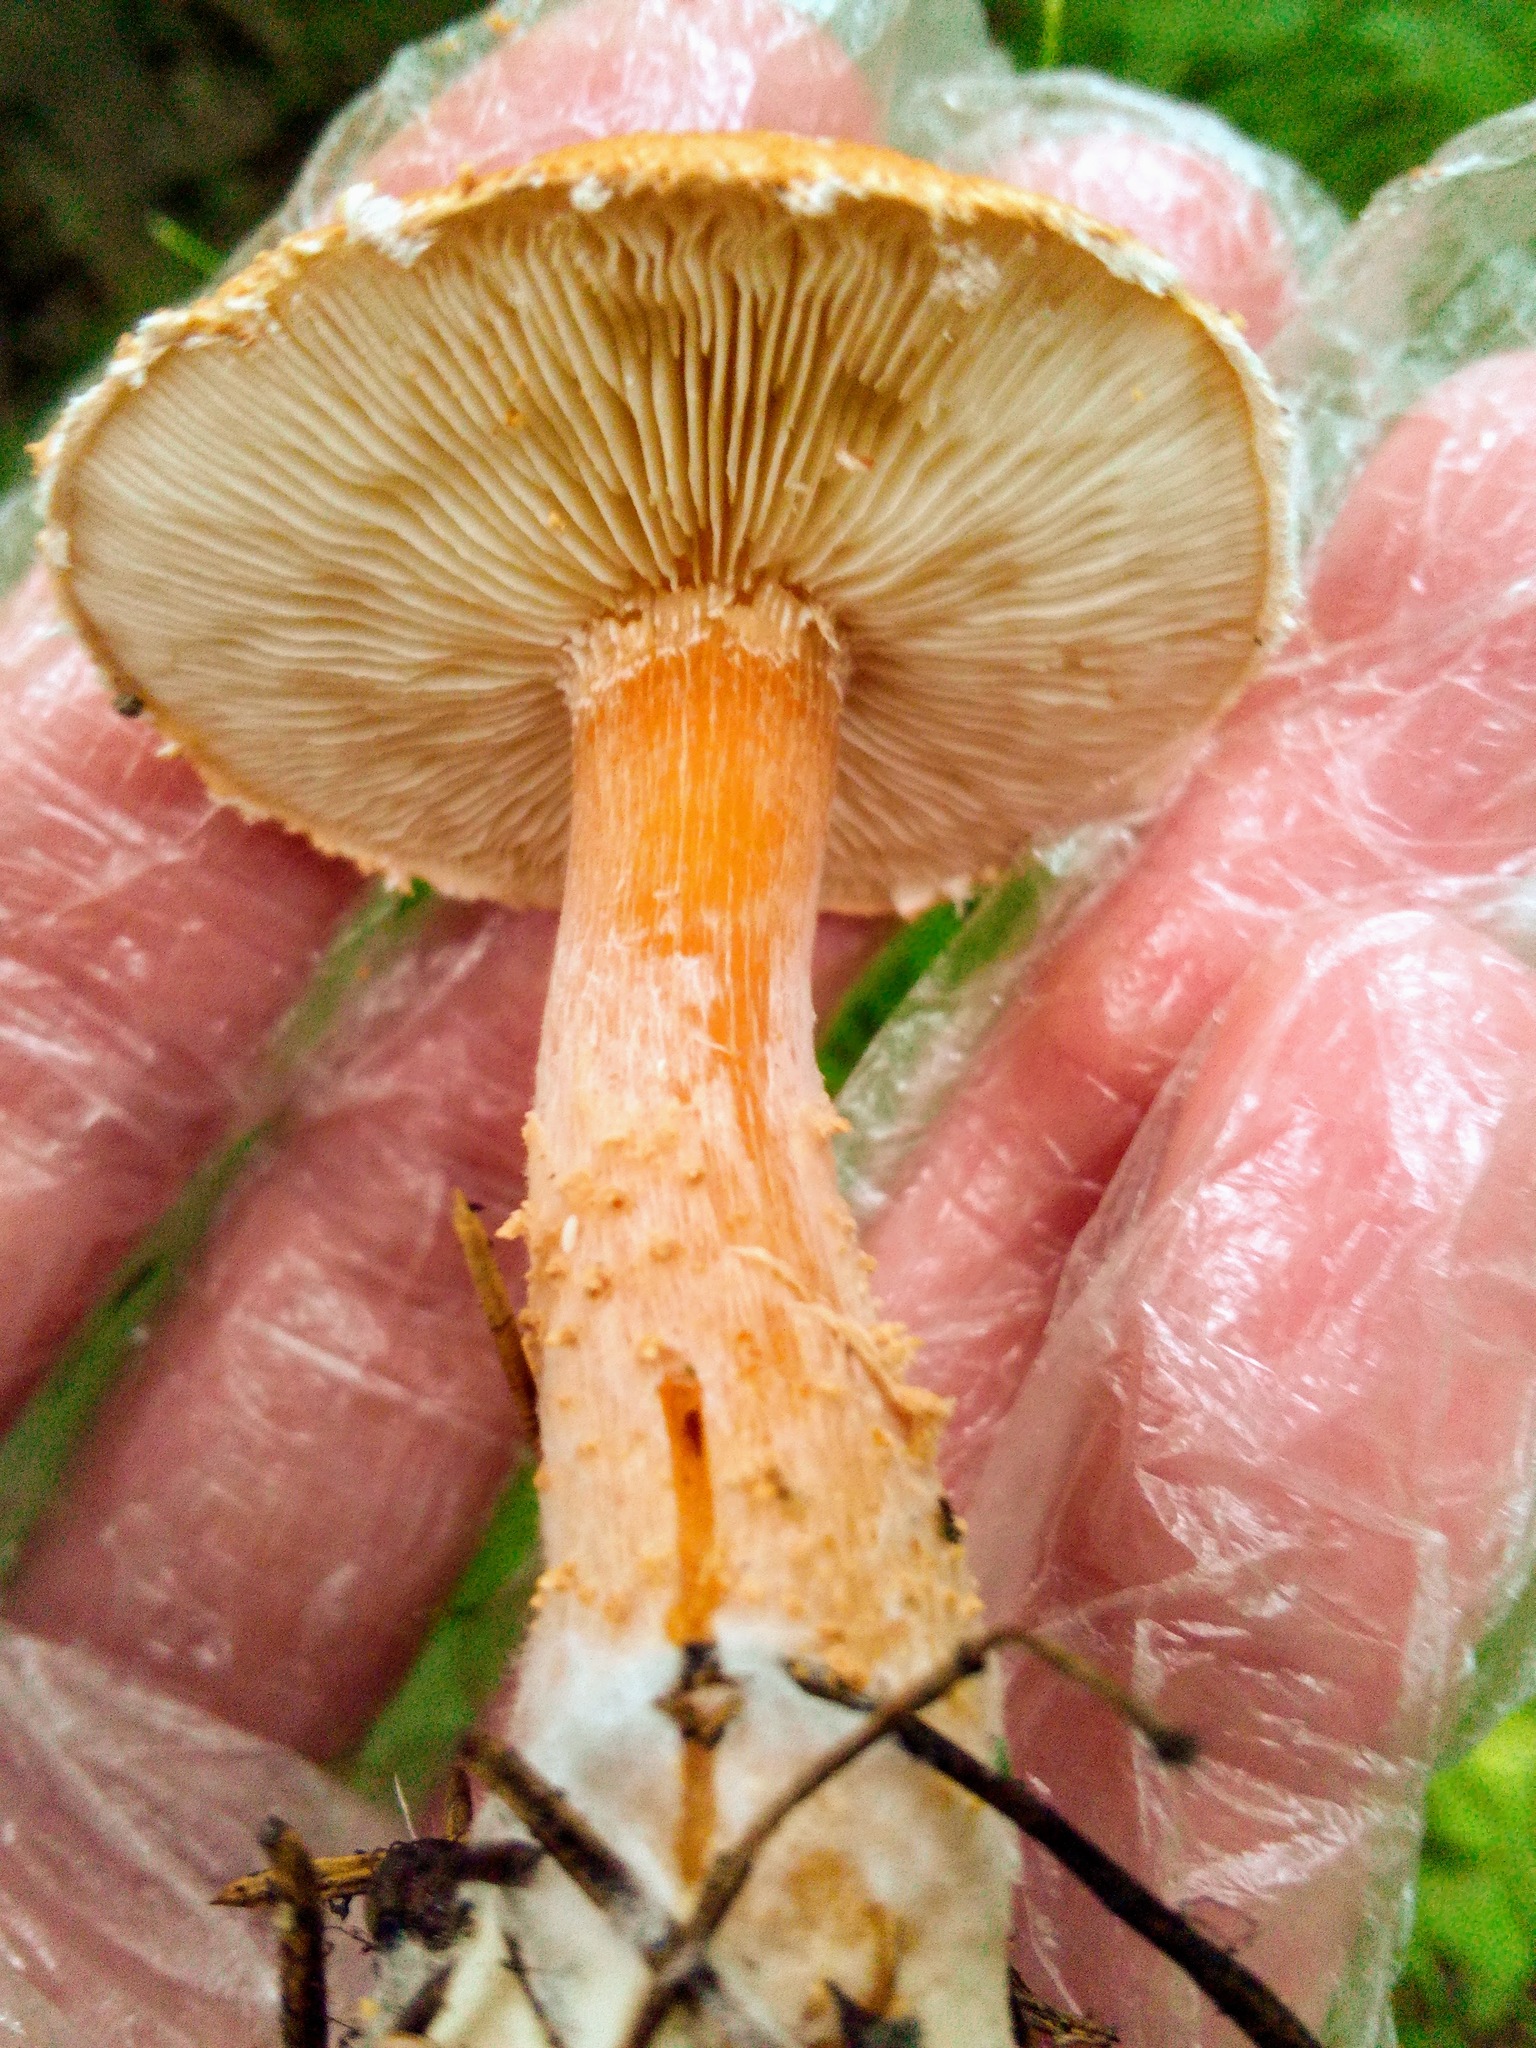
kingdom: Fungi
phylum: Basidiomycota
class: Agaricomycetes
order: Agaricales
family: Agaricaceae
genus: Cystodermella
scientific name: Cystodermella cinnabarina
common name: Cinnabar powdercap
